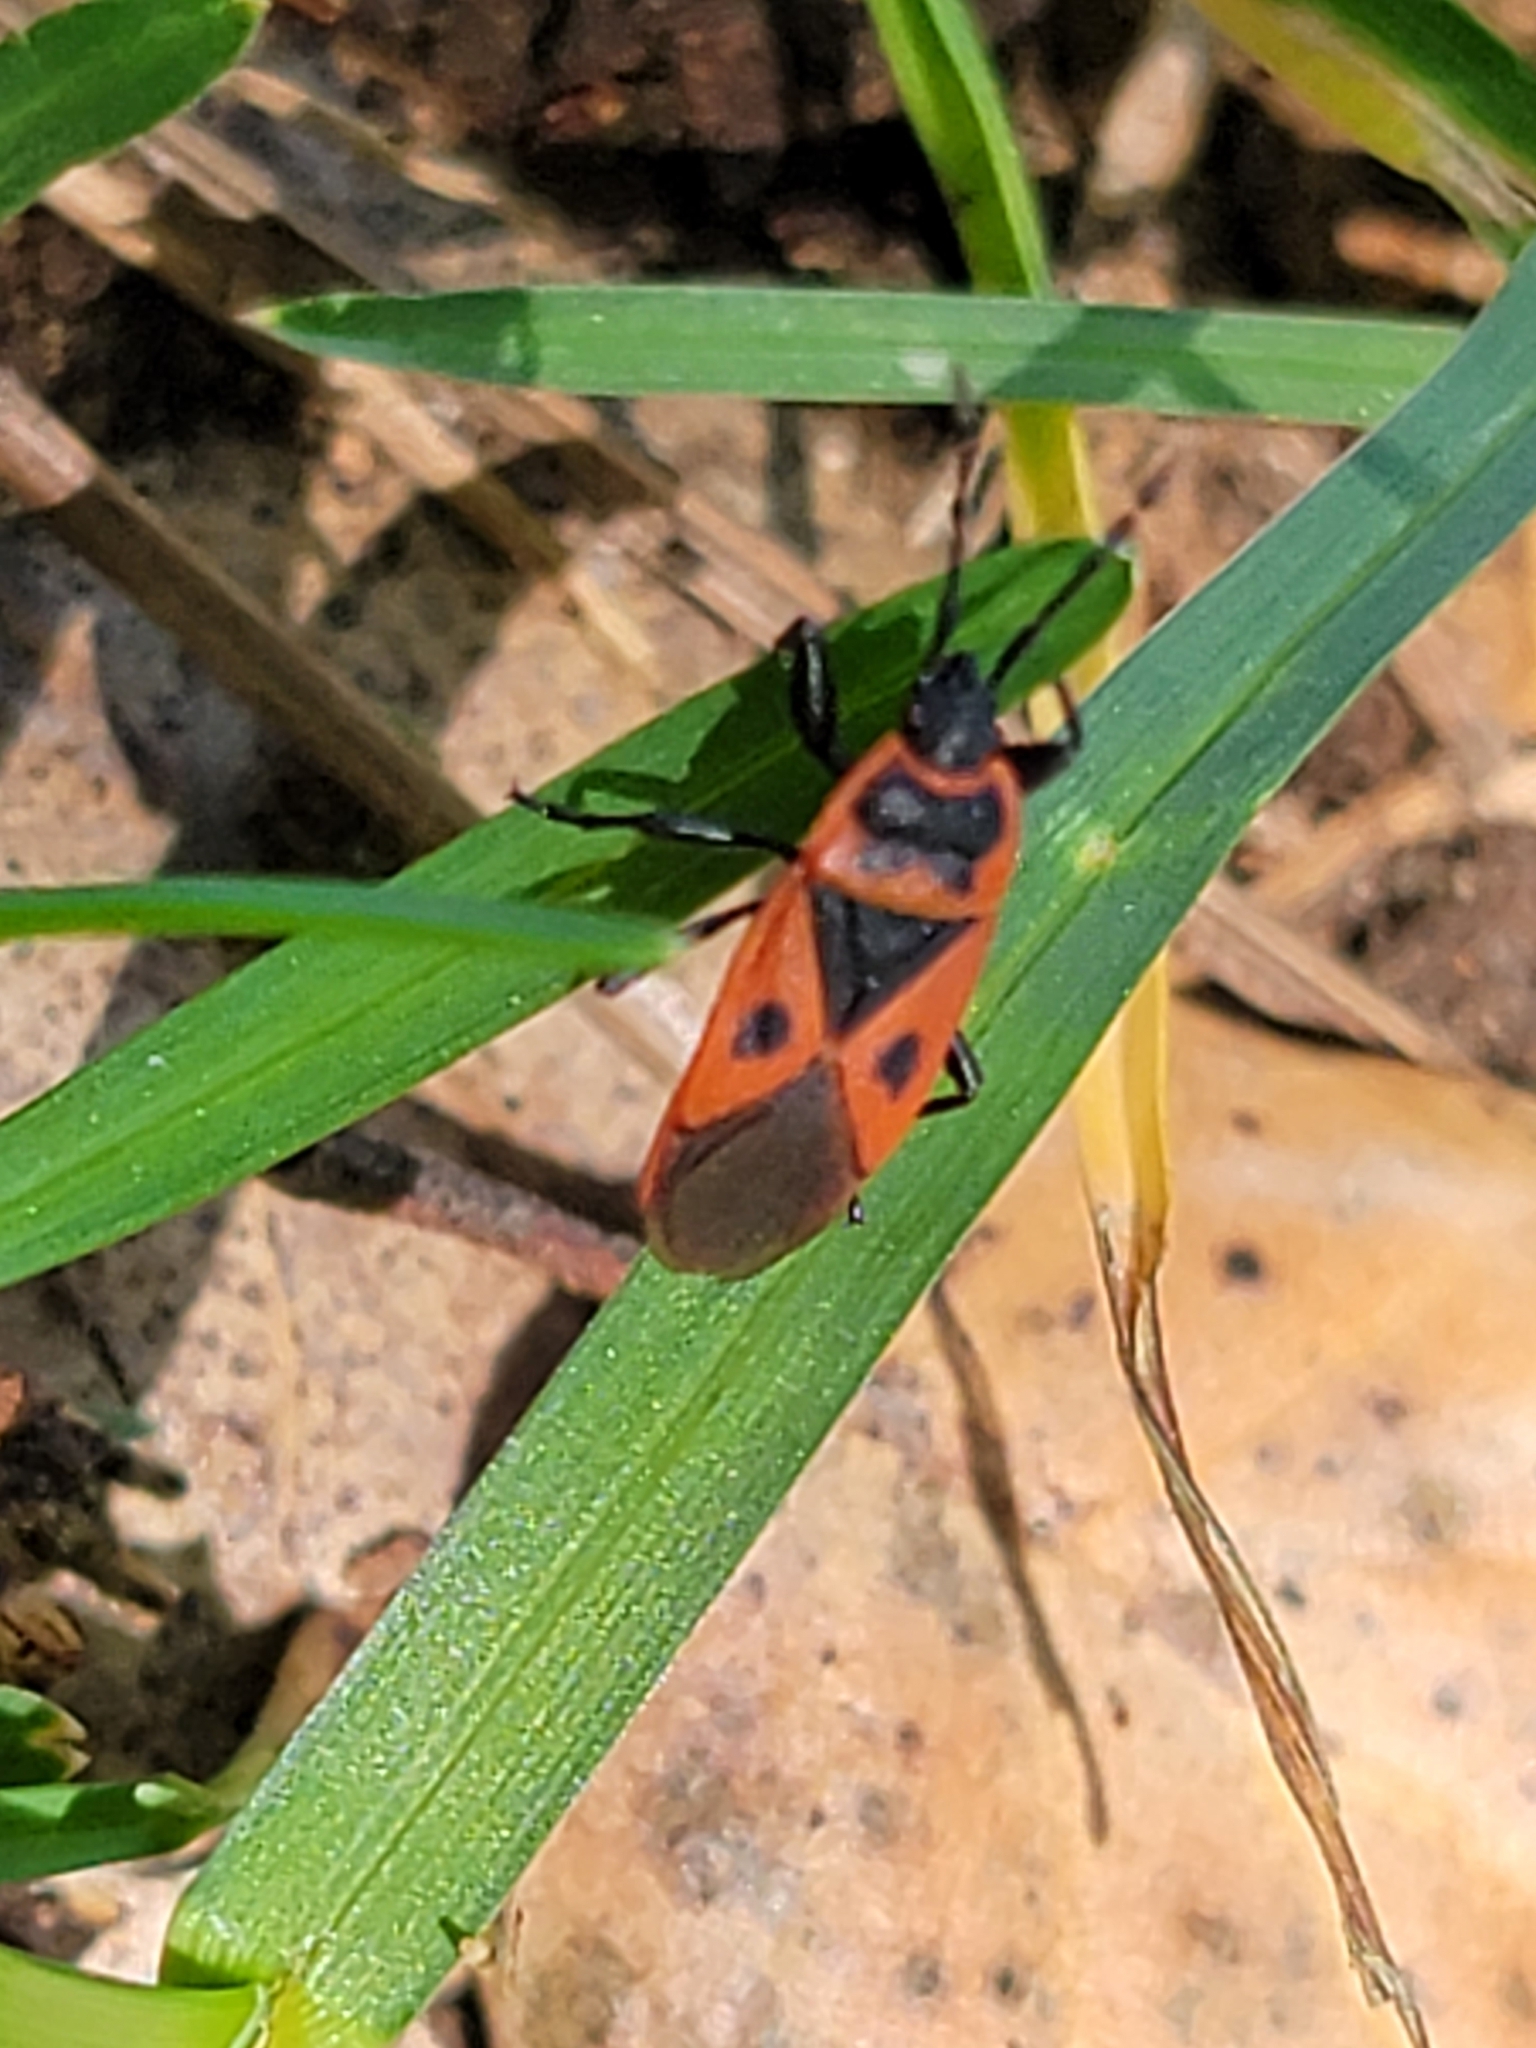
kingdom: Animalia
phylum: Arthropoda
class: Insecta
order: Hemiptera
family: Pyrrhocoridae
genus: Scantius
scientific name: Scantius aegyptius
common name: Red bug
